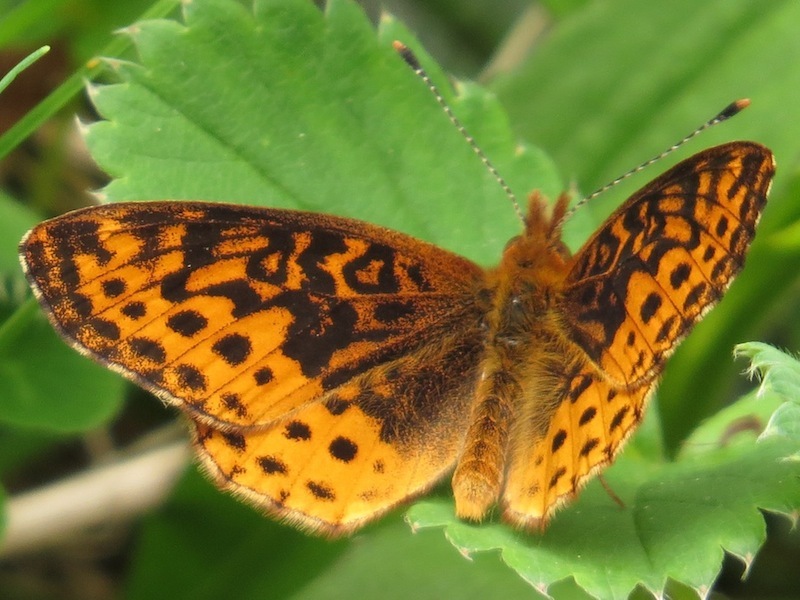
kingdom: Animalia
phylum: Arthropoda
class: Insecta
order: Lepidoptera
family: Nymphalidae
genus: Clossiana
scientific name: Clossiana toddi
